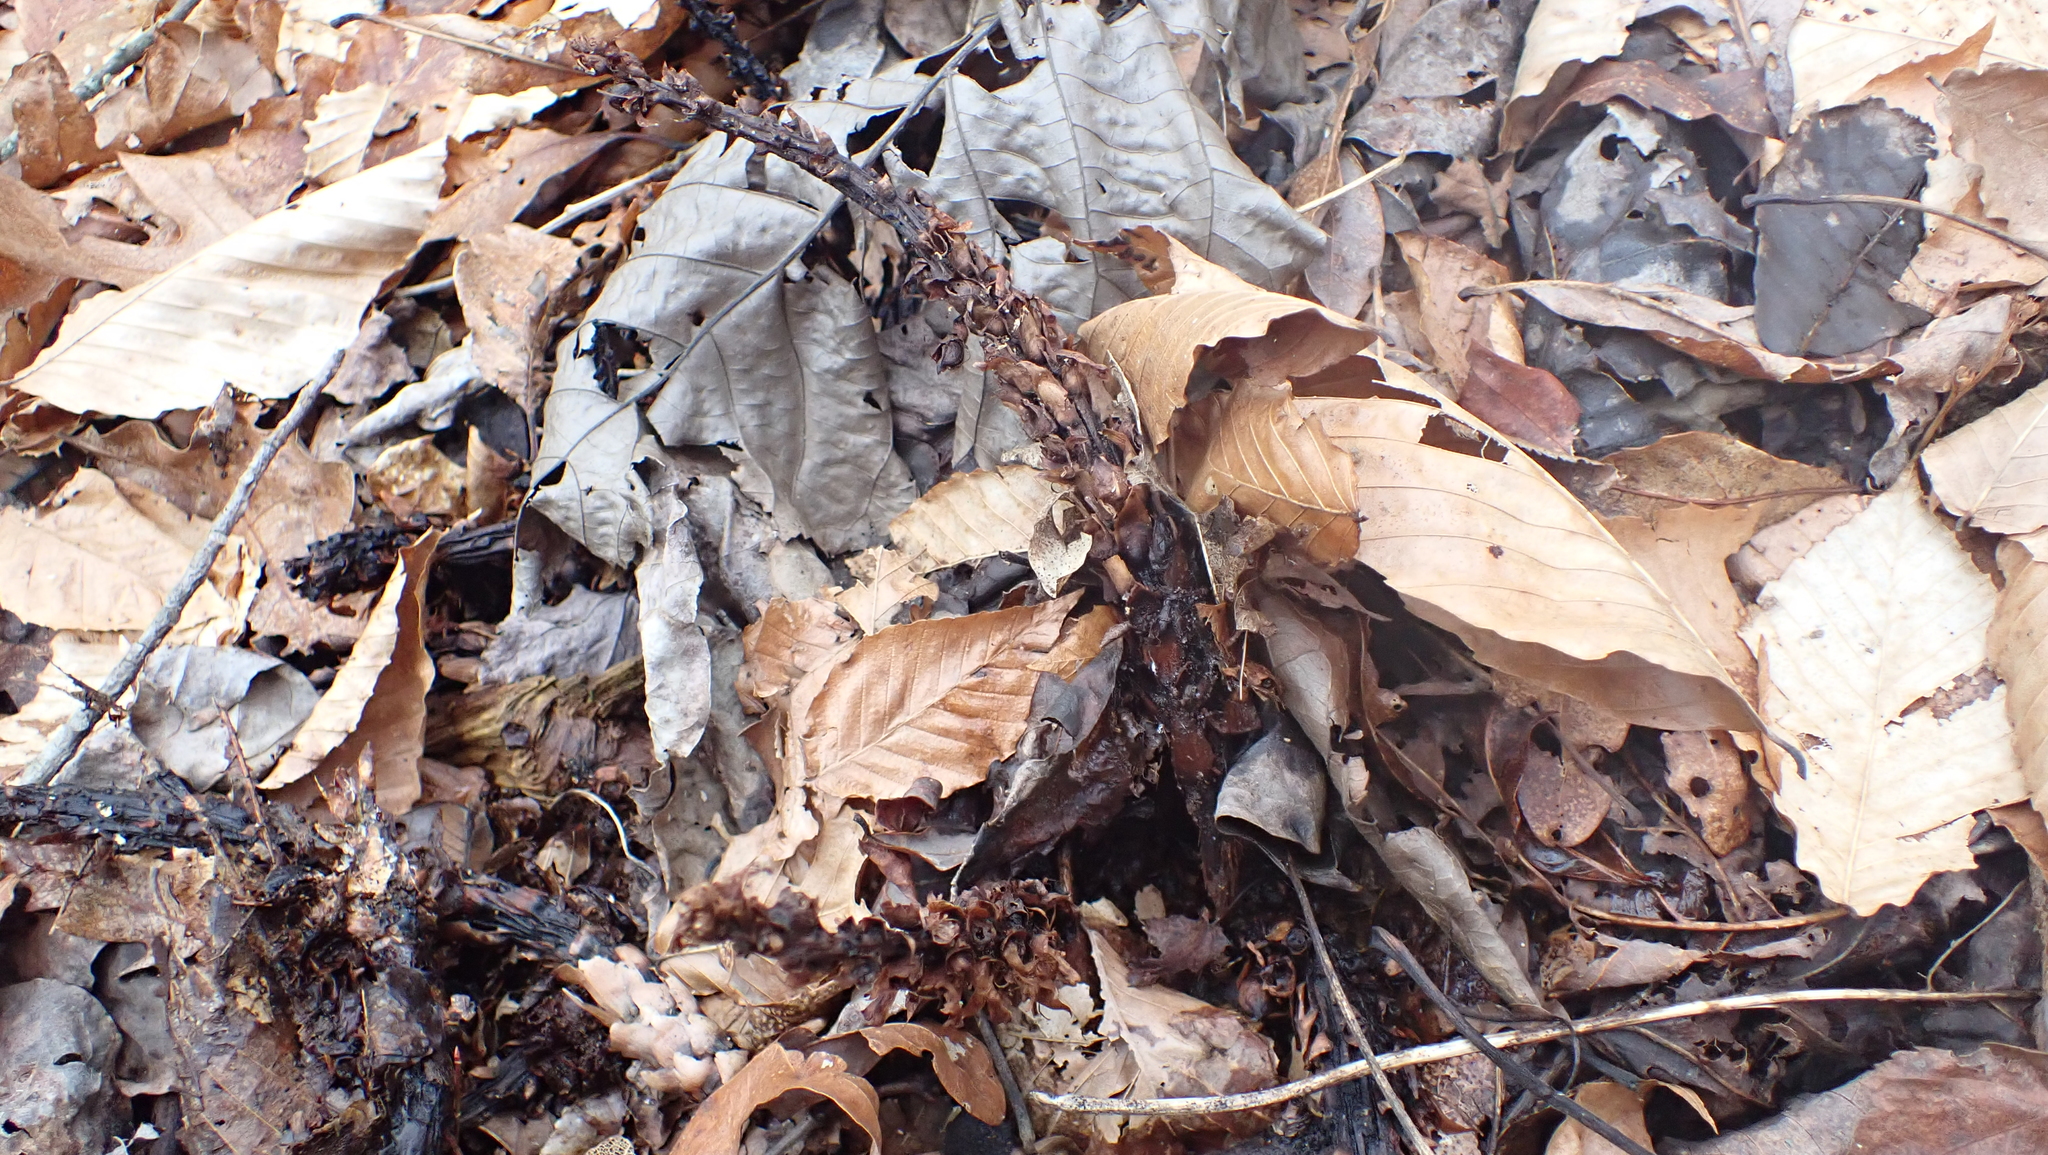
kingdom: Plantae
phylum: Tracheophyta
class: Magnoliopsida
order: Lamiales
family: Orobanchaceae
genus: Conopholis
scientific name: Conopholis americana
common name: American cancer-root
